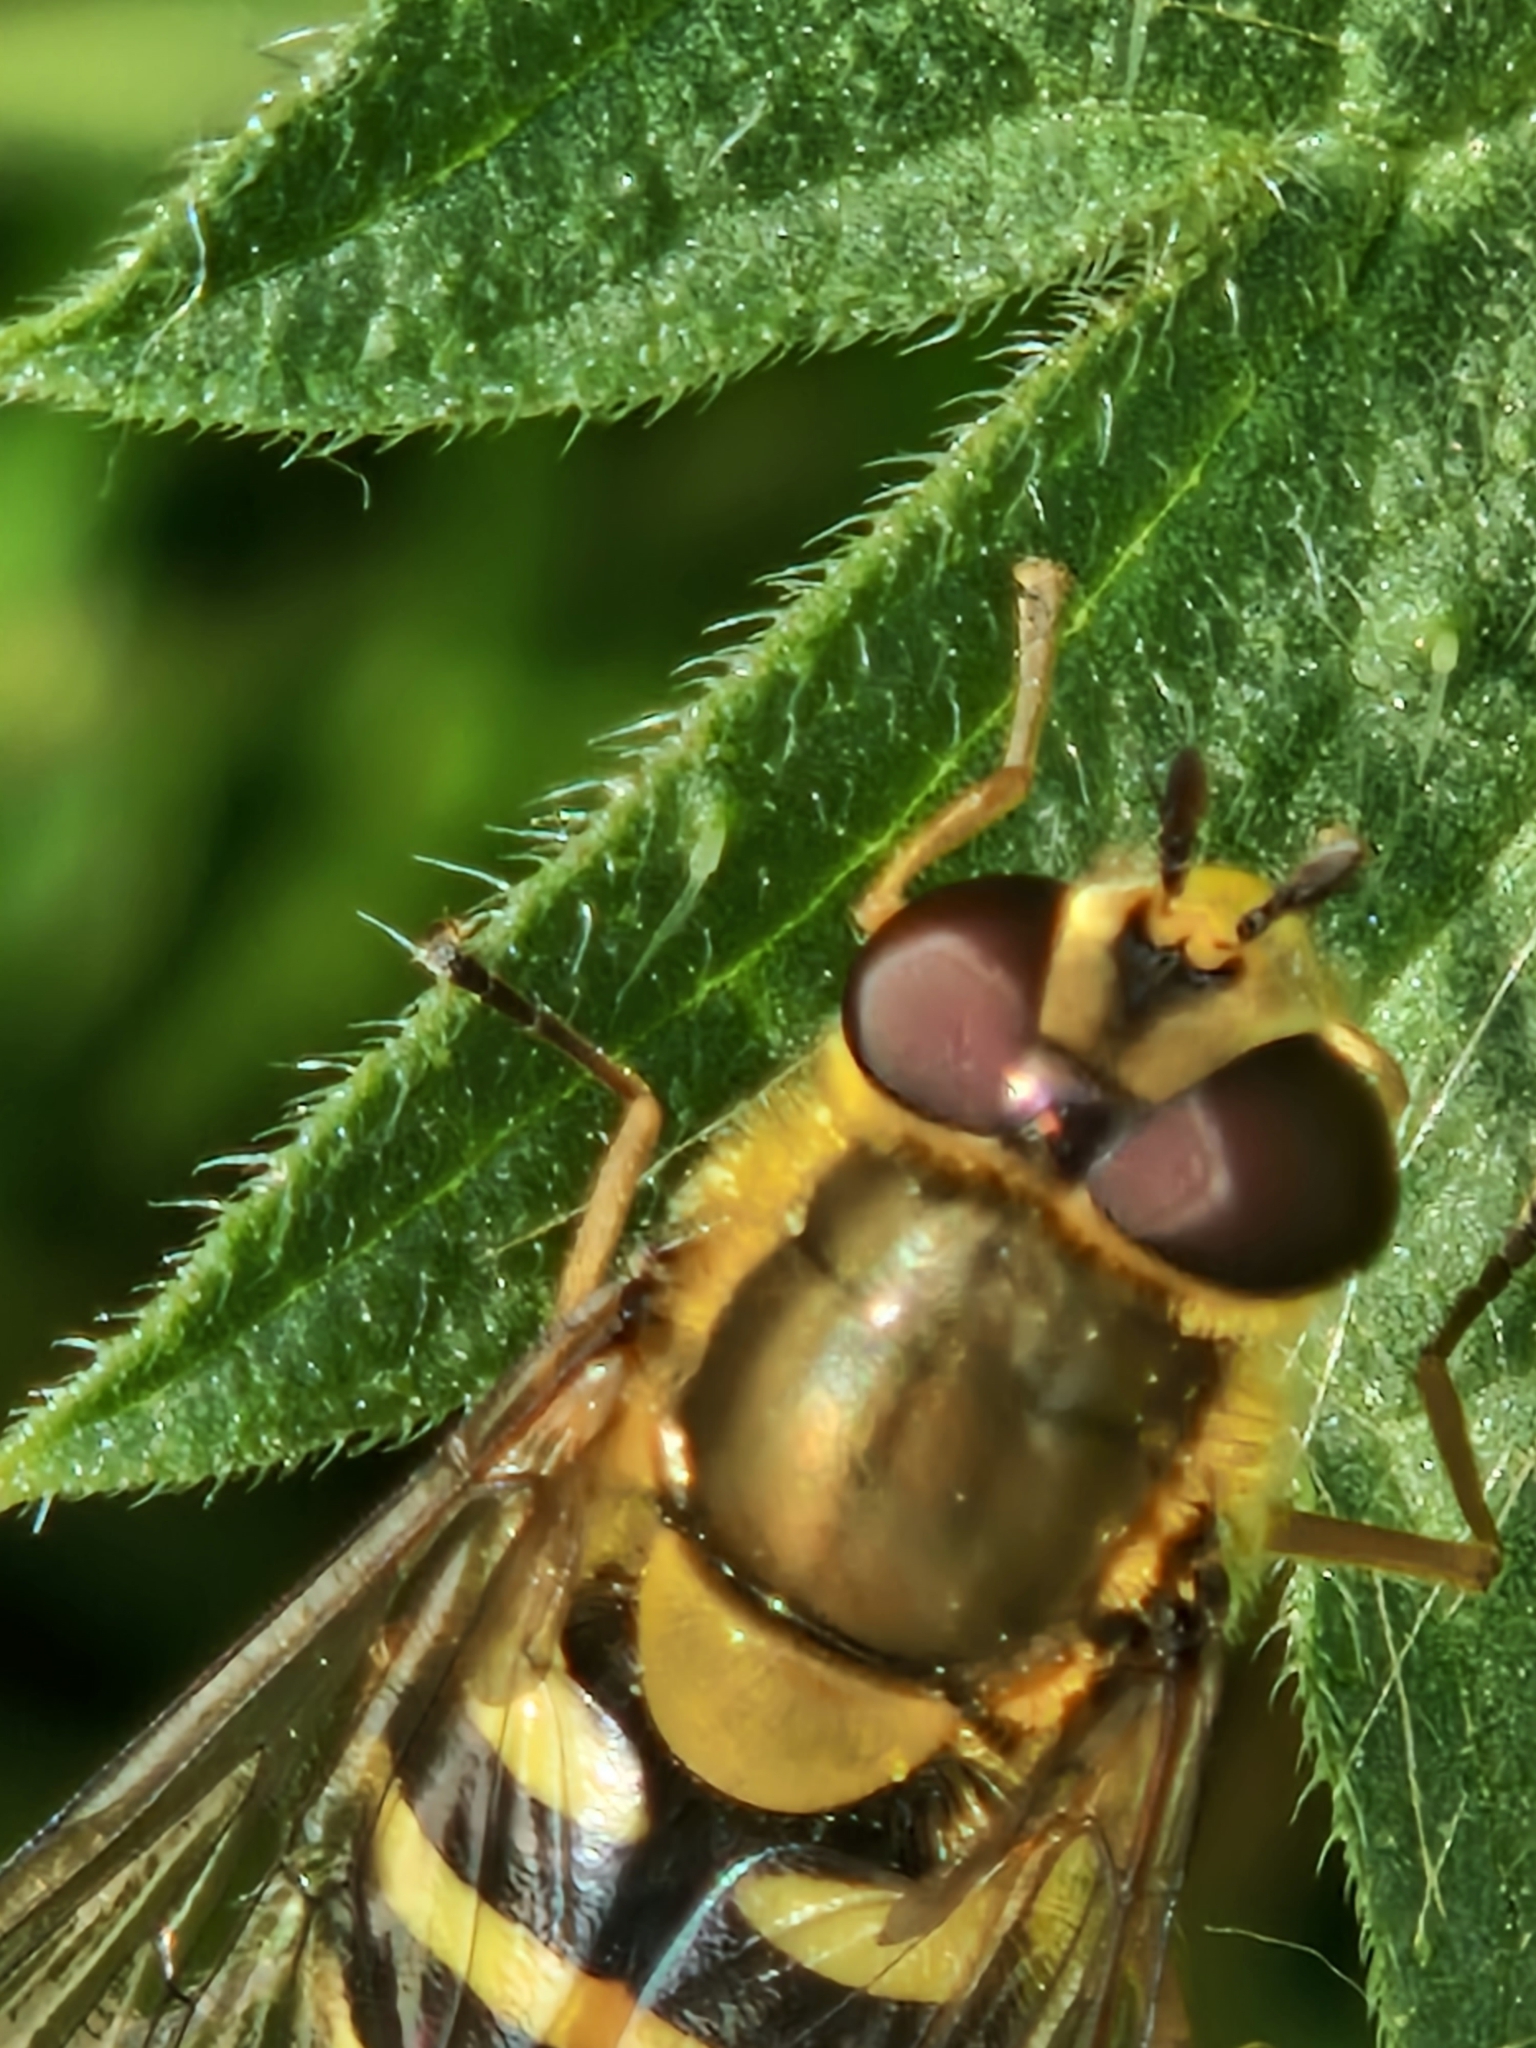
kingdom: Animalia
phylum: Arthropoda
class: Insecta
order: Diptera
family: Syrphidae
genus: Syrphus
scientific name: Syrphus
